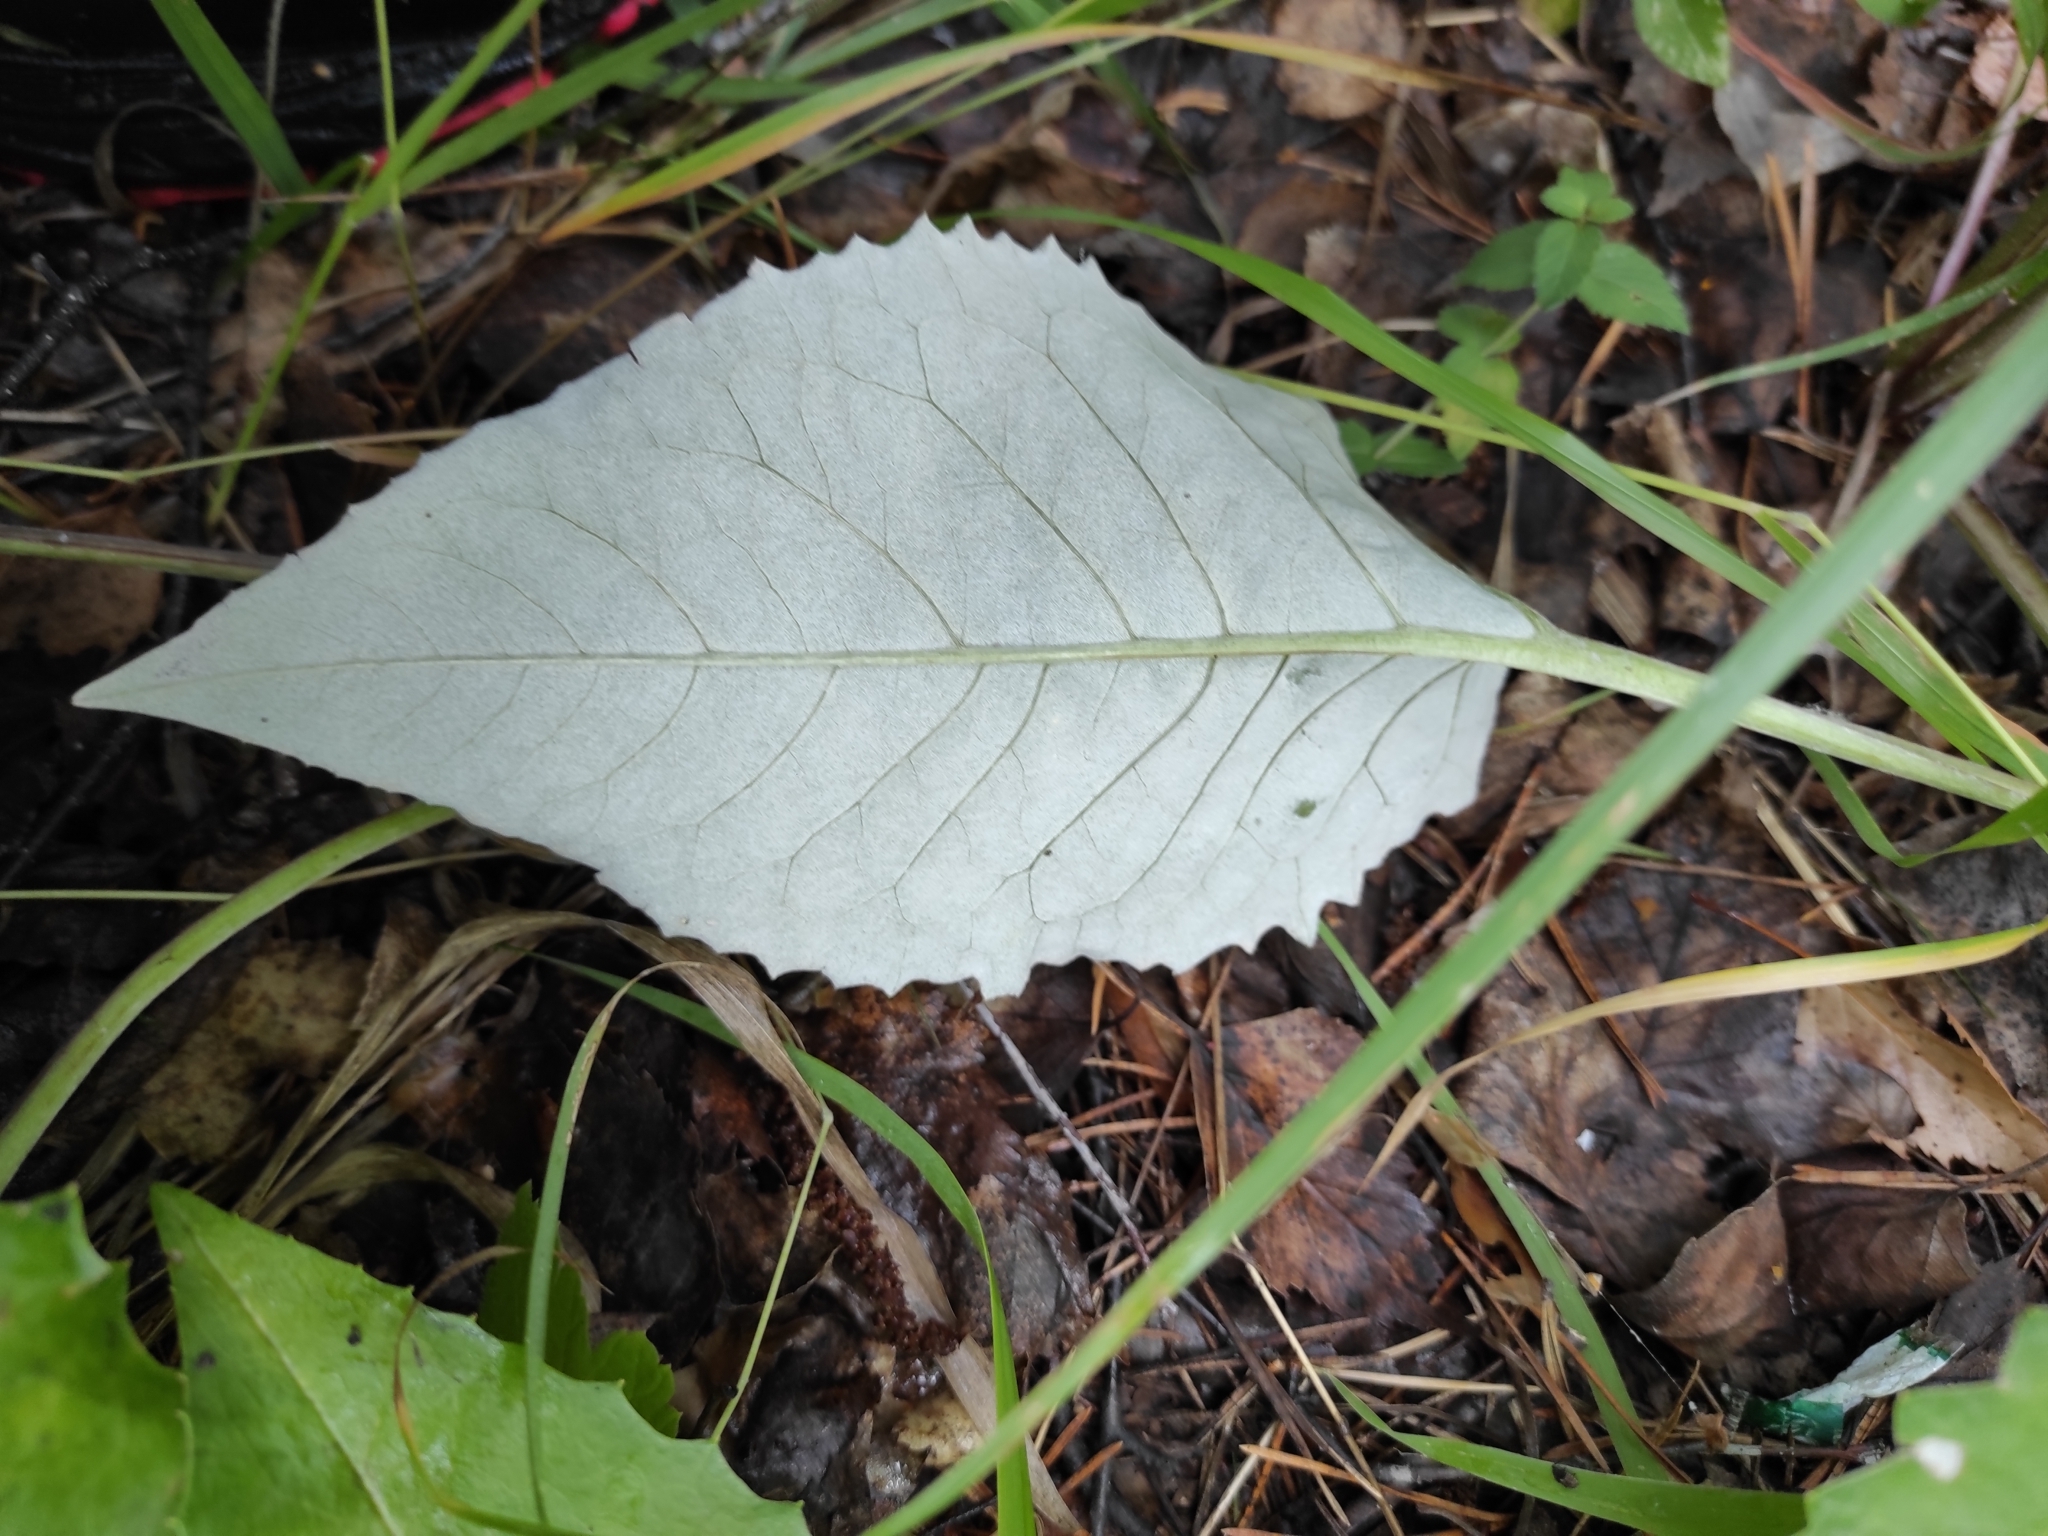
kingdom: Plantae
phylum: Tracheophyta
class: Magnoliopsida
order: Asterales
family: Asteraceae
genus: Saussurea
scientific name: Saussurea controversa
